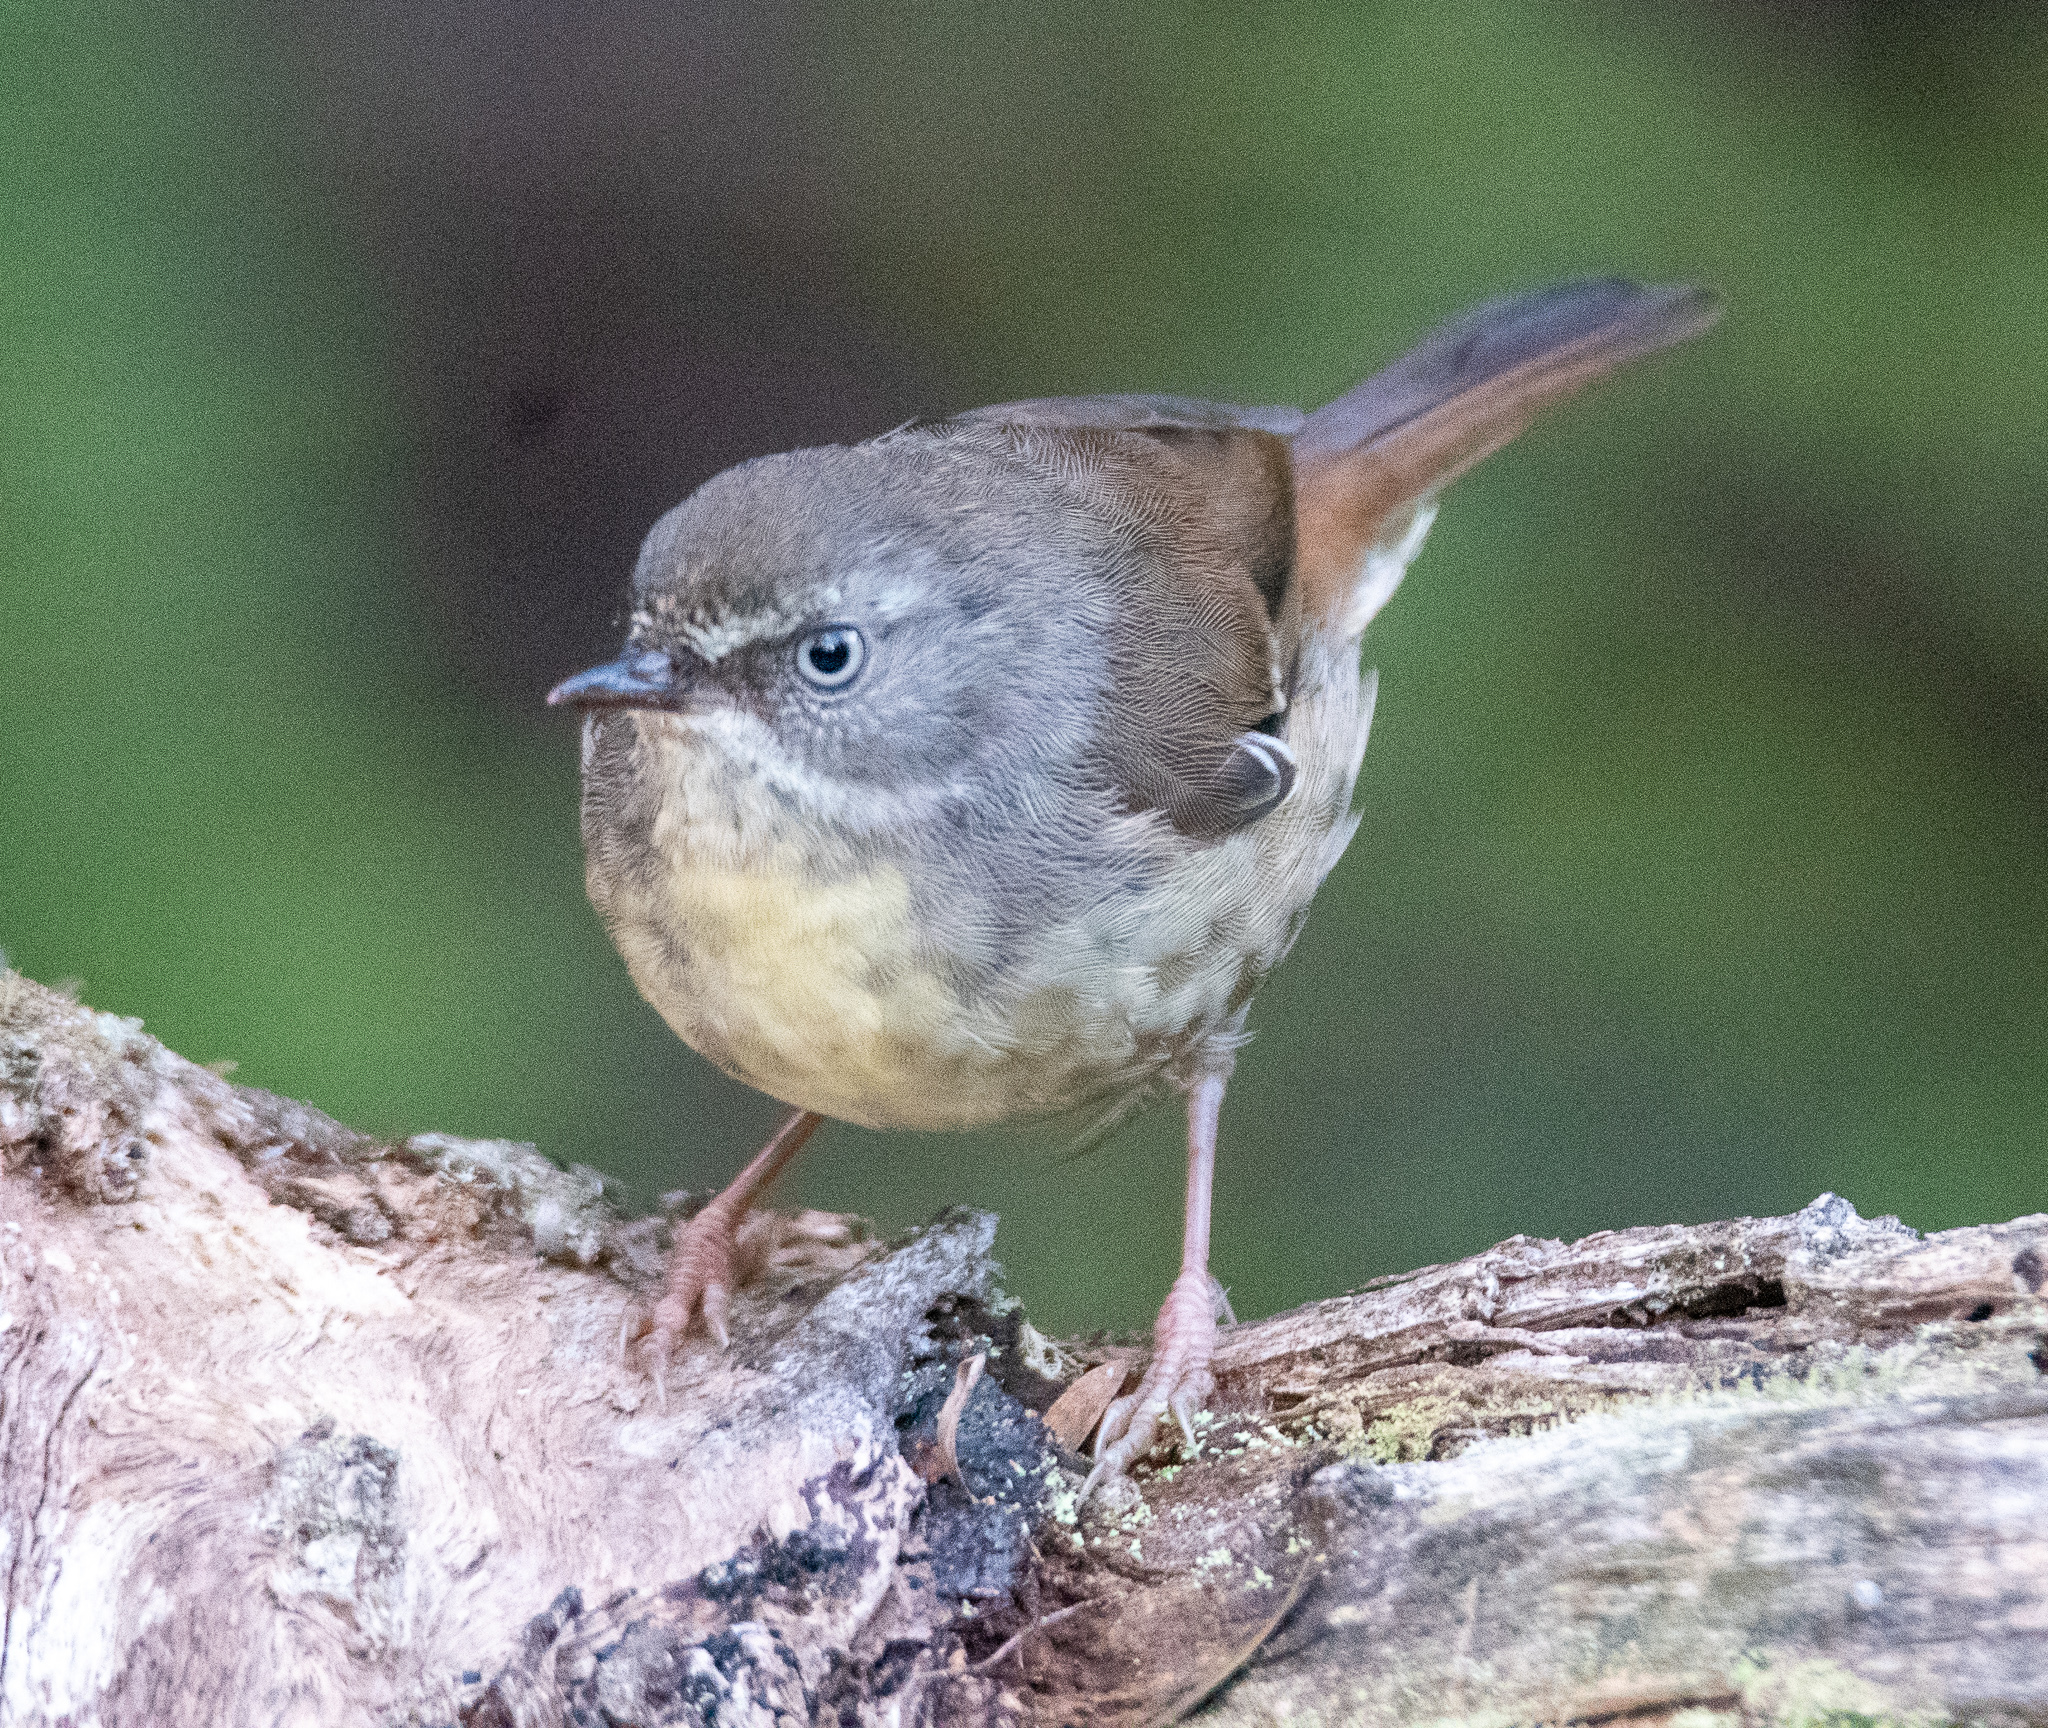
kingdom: Animalia
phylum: Chordata
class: Aves
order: Passeriformes
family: Acanthizidae
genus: Sericornis
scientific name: Sericornis frontalis
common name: White-browed scrubwren
